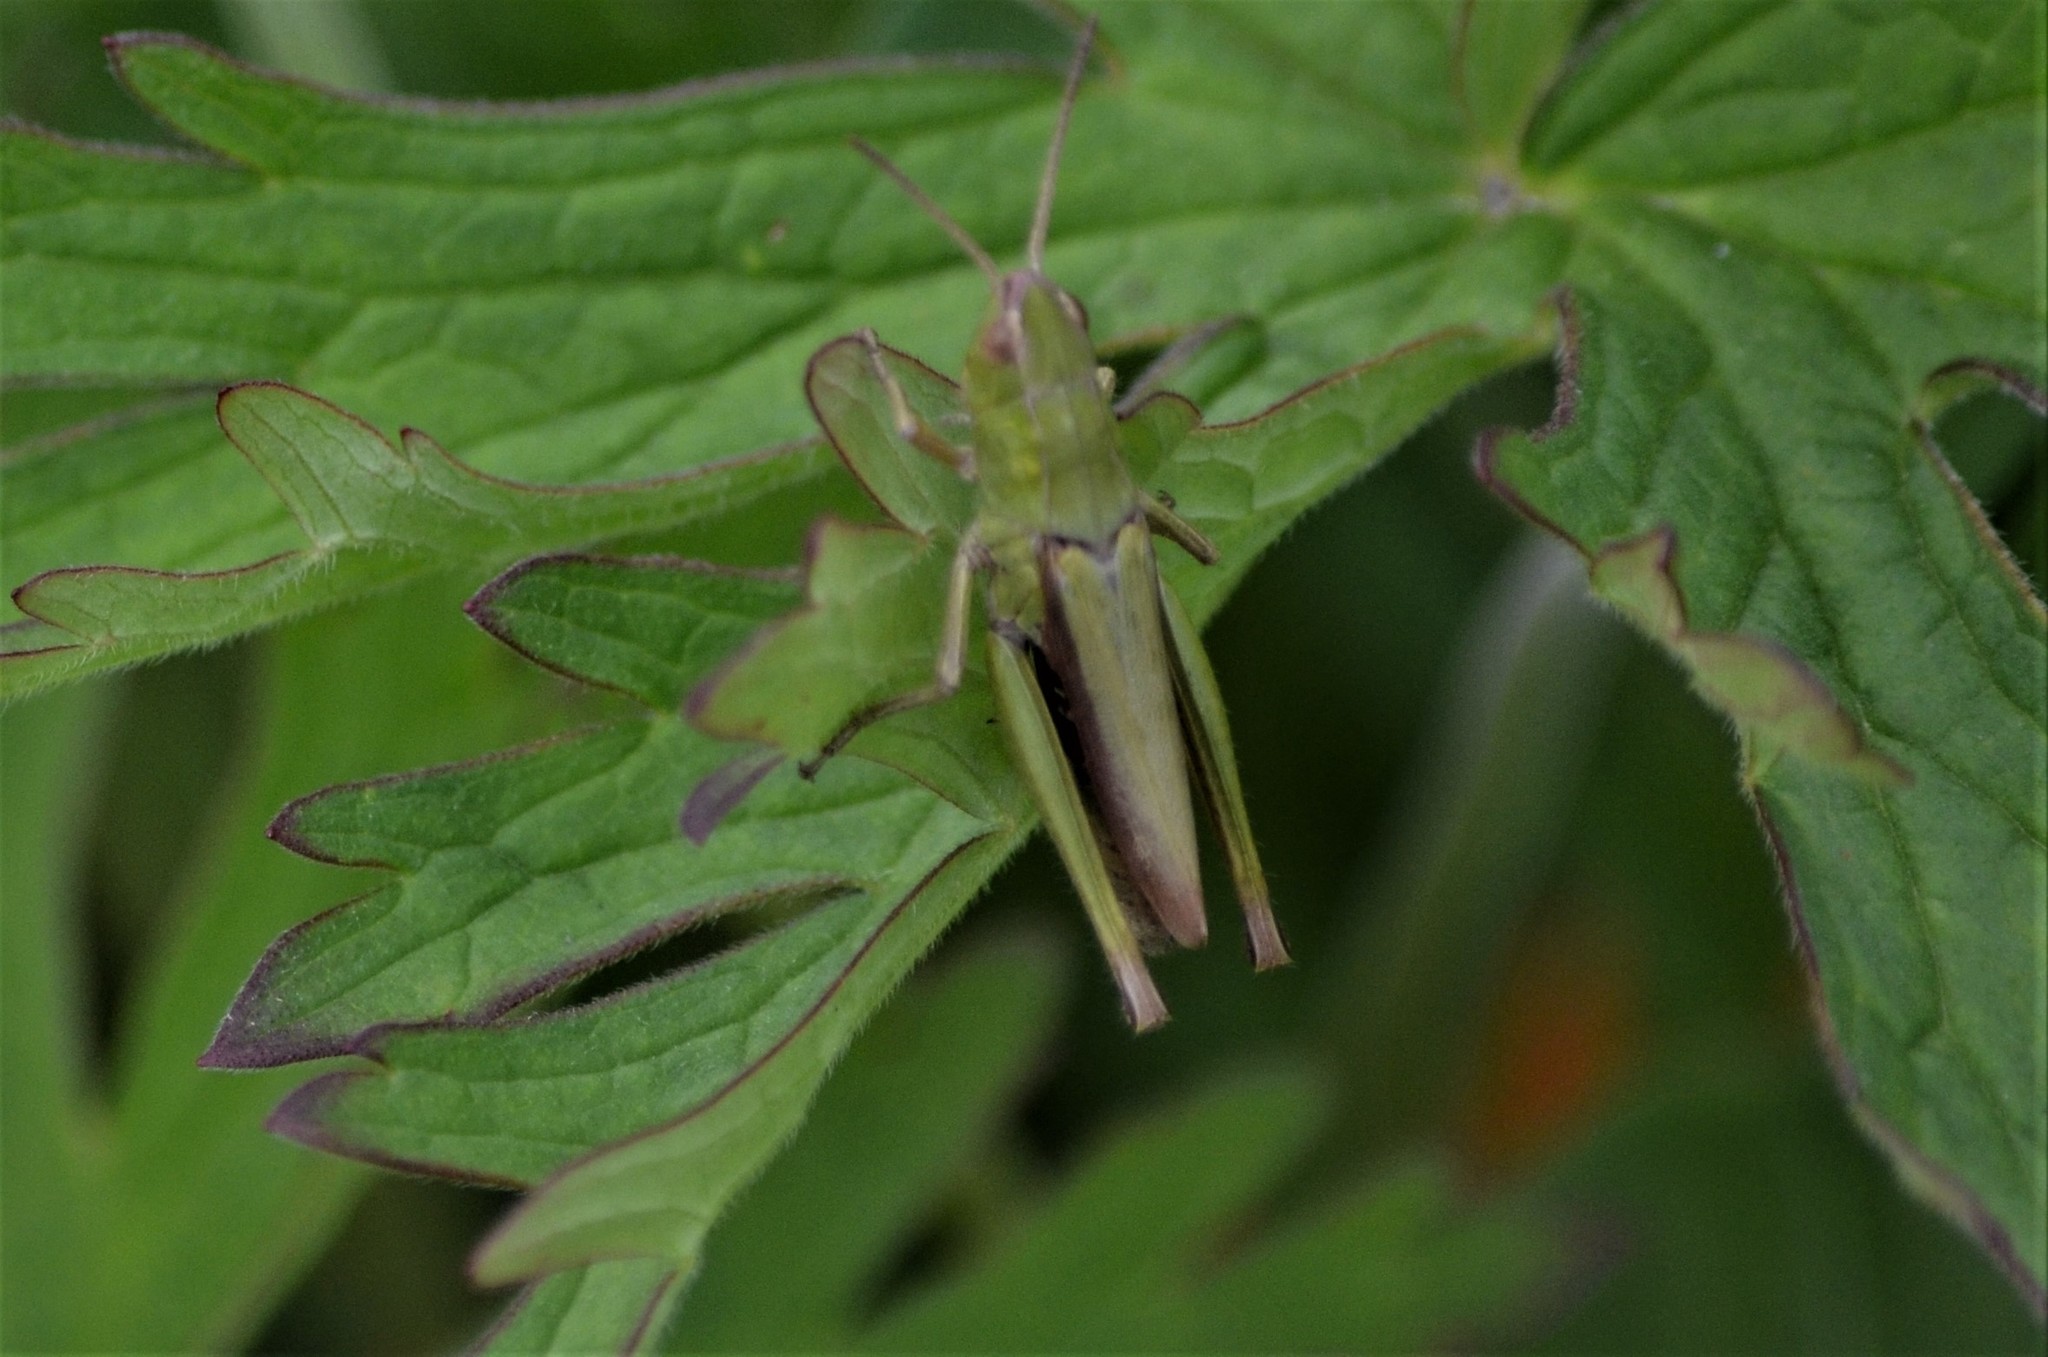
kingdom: Animalia
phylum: Arthropoda
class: Insecta
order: Orthoptera
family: Acrididae
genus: Chorthippus
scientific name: Chorthippus dorsatus
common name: Steppe grasshopper
